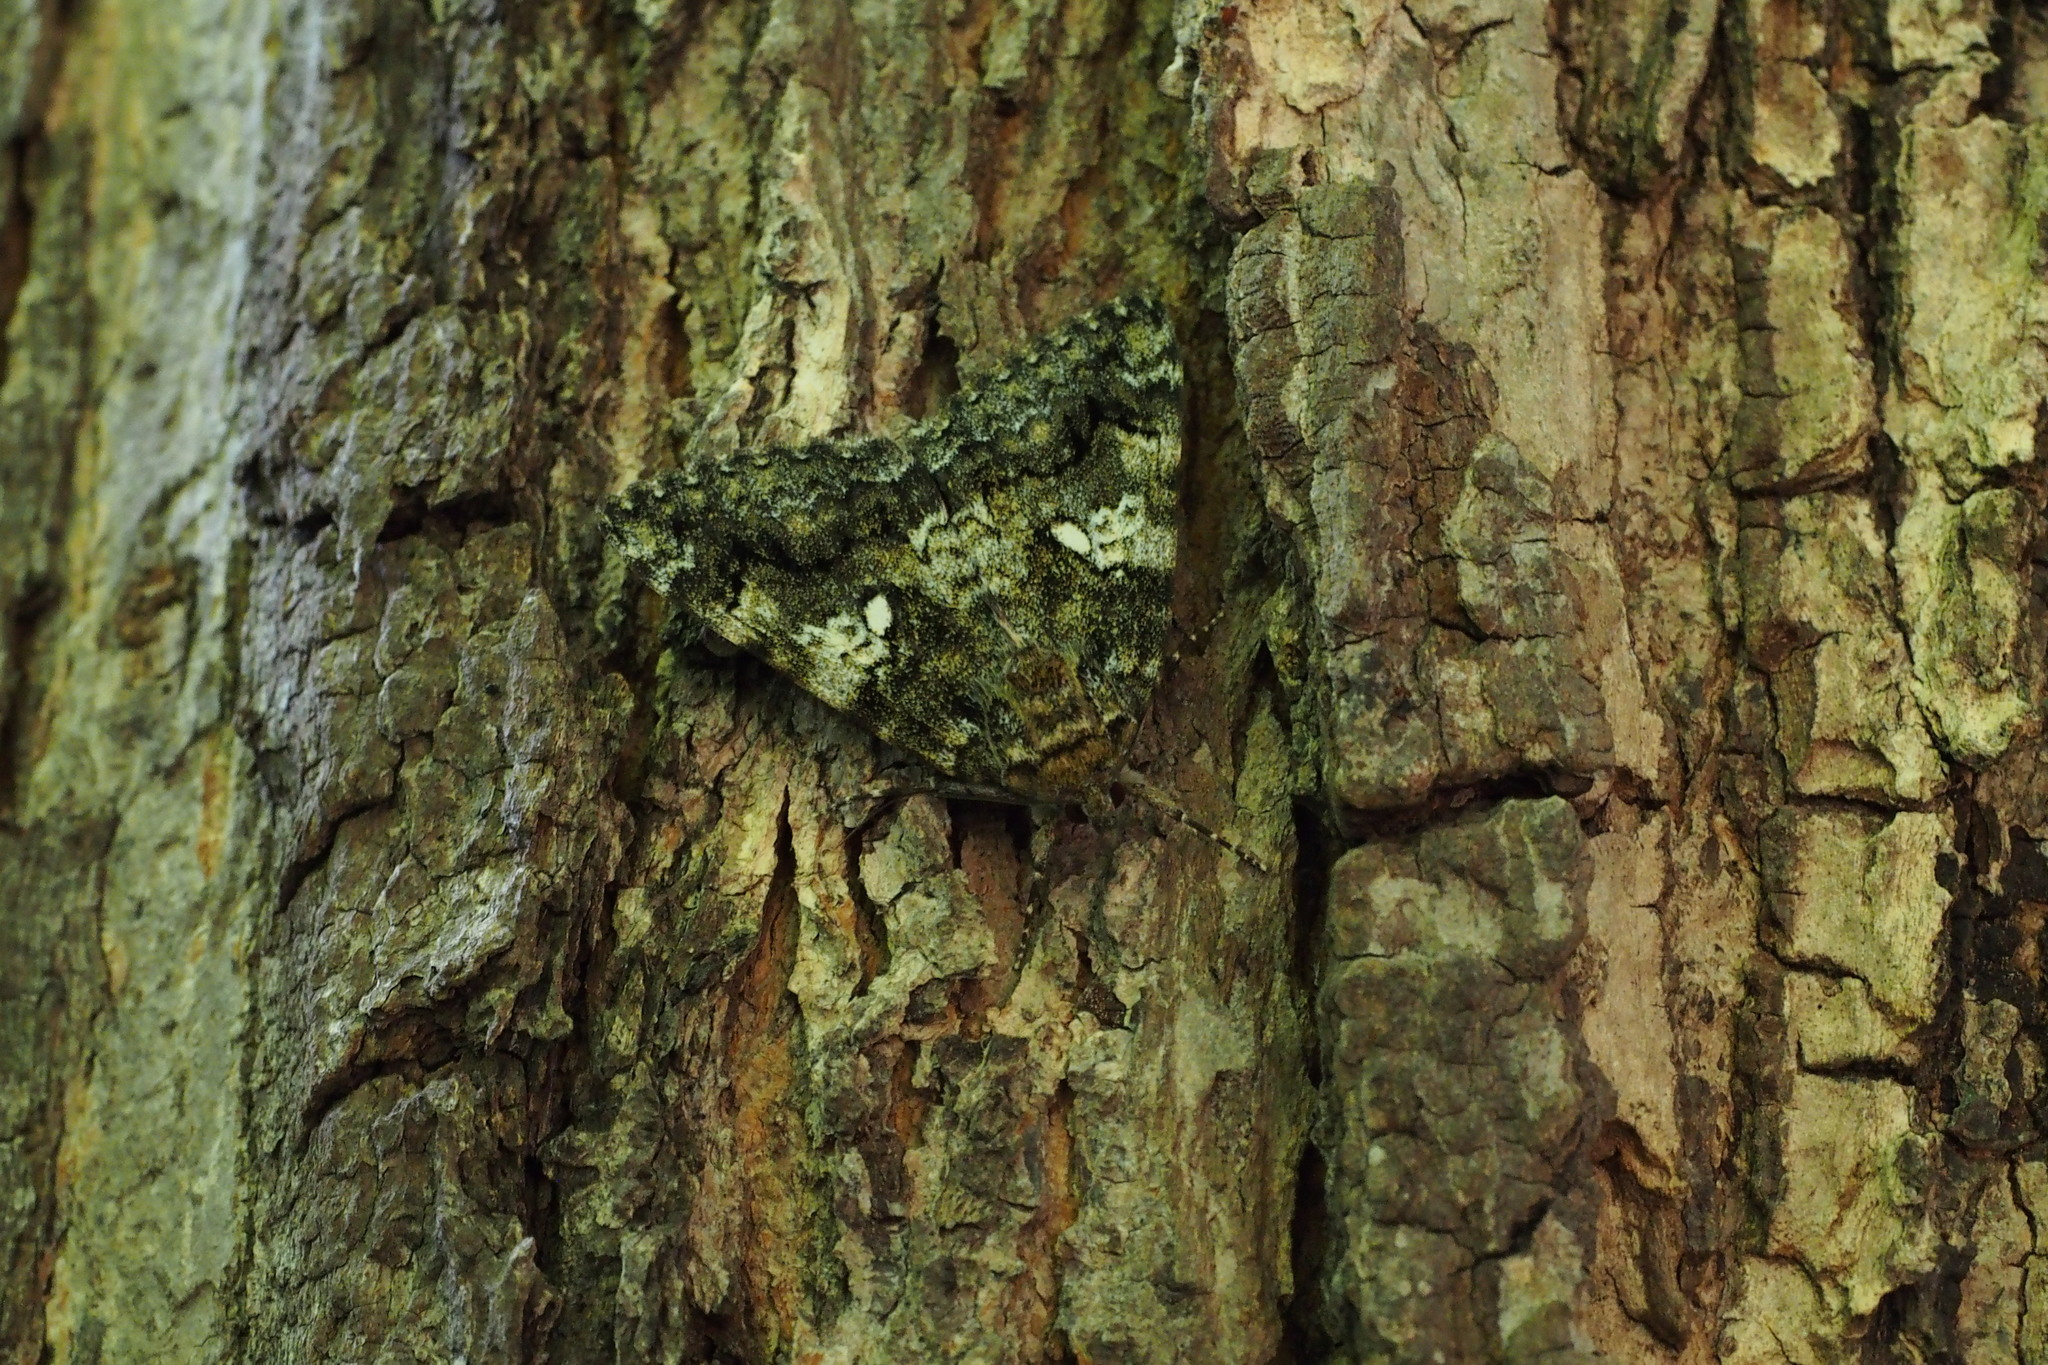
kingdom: Animalia
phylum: Arthropoda
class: Insecta
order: Lepidoptera
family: Erebidae
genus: Catocala
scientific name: Catocala dula
